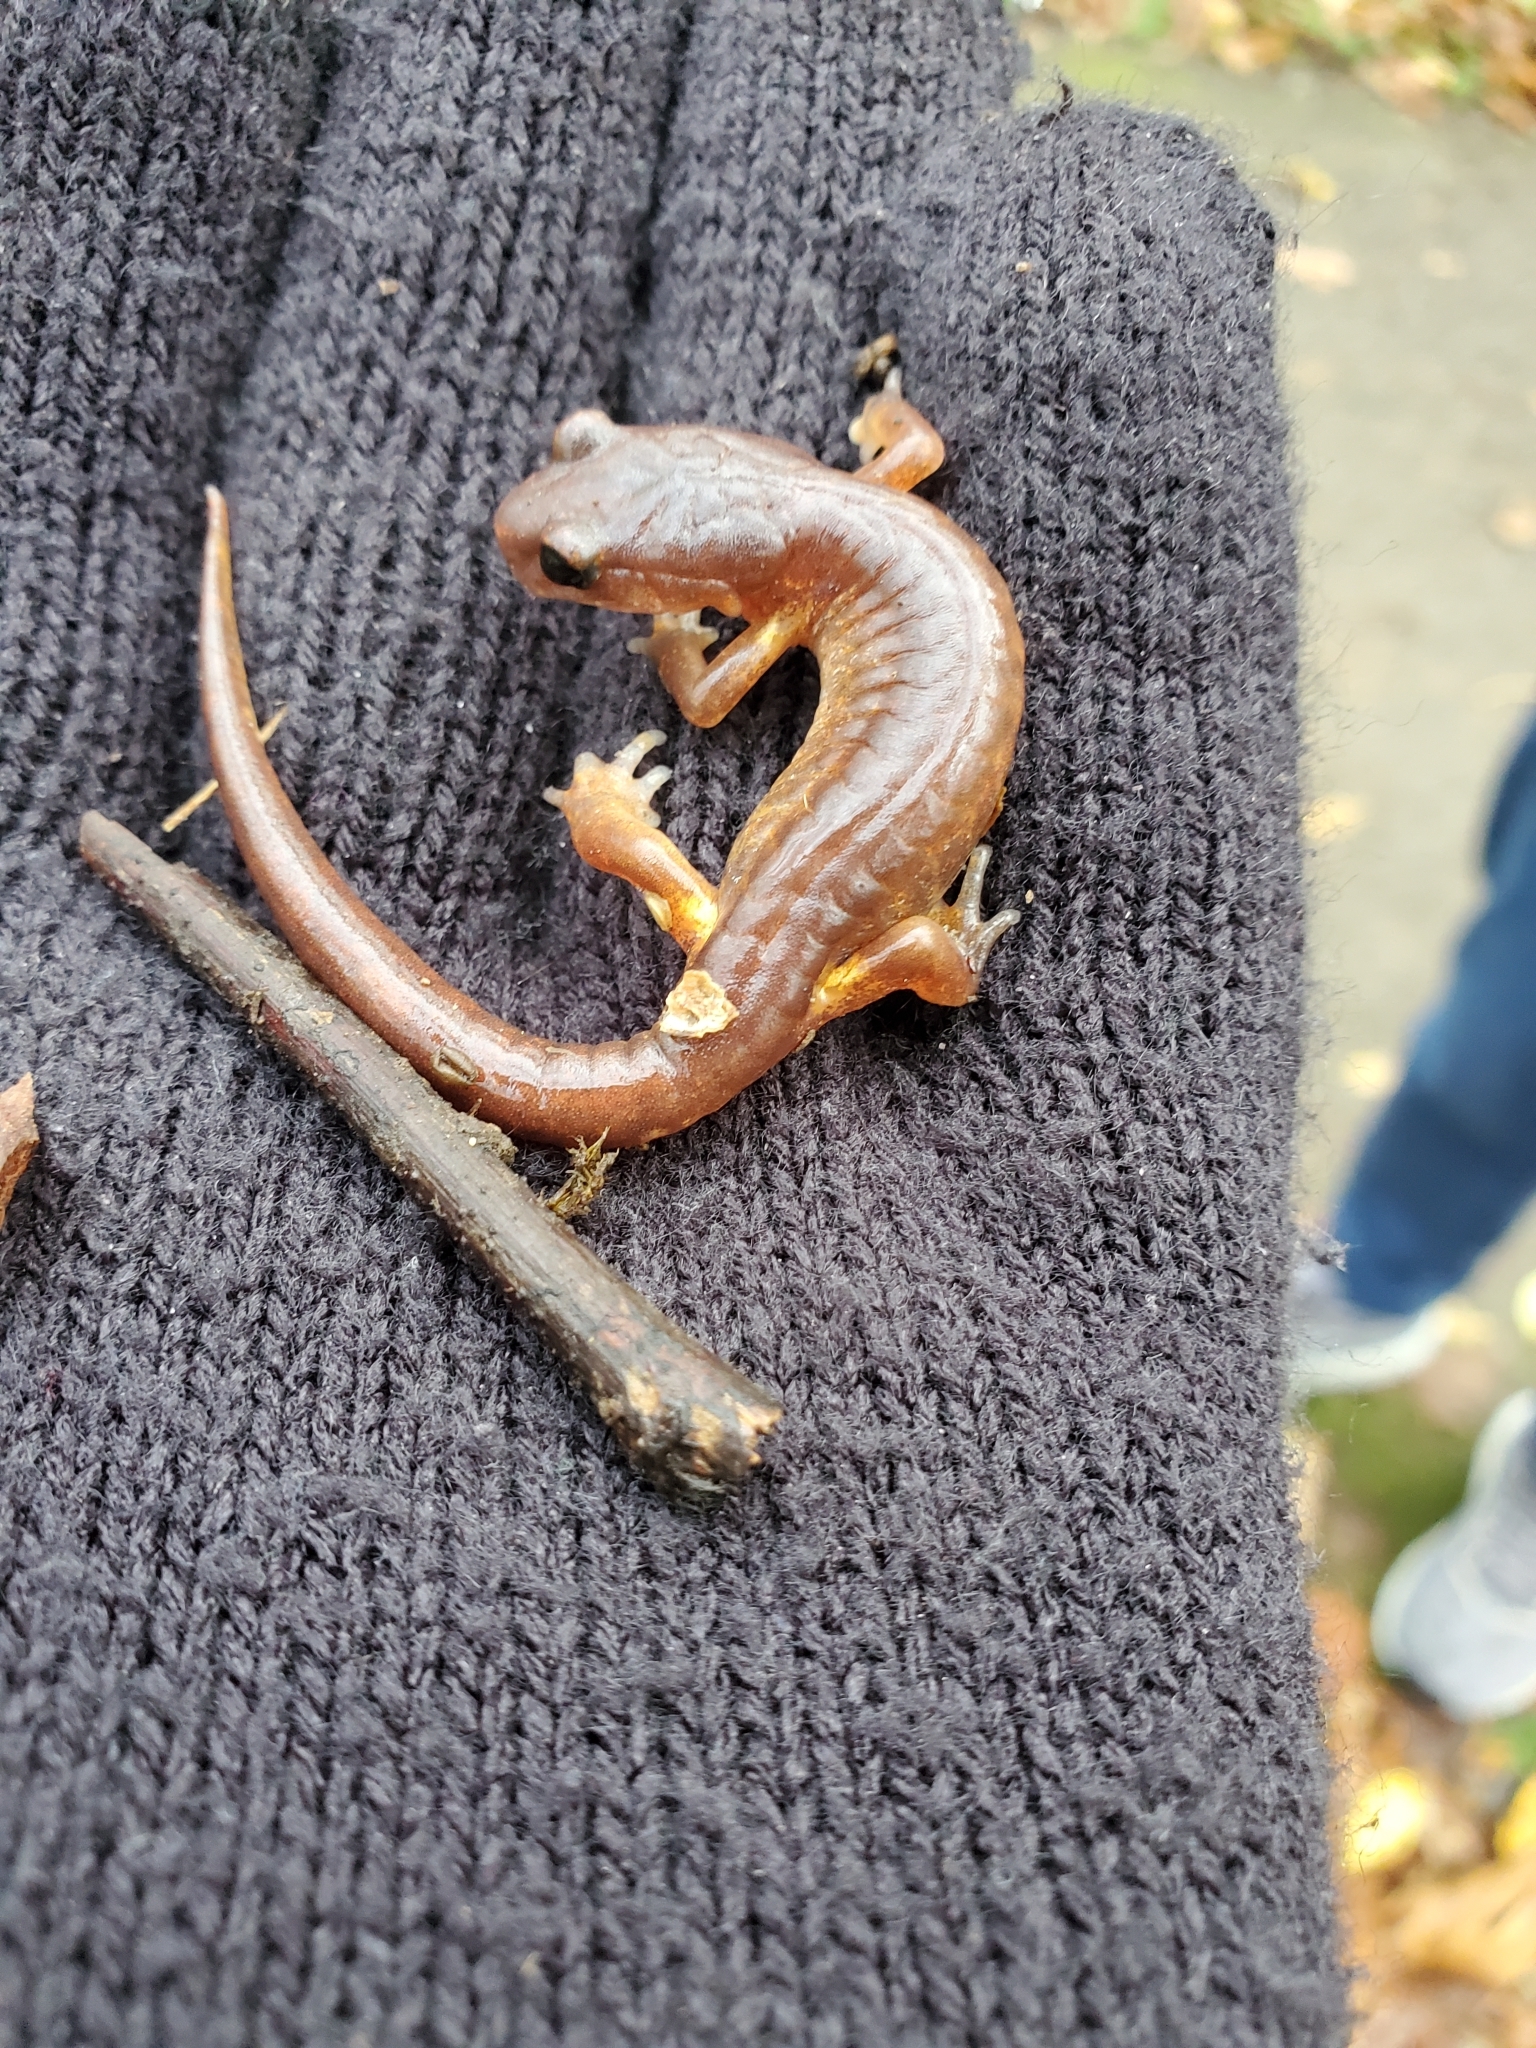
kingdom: Animalia
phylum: Chordata
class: Amphibia
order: Caudata
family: Plethodontidae
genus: Ensatina
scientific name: Ensatina eschscholtzii
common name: Ensatina
